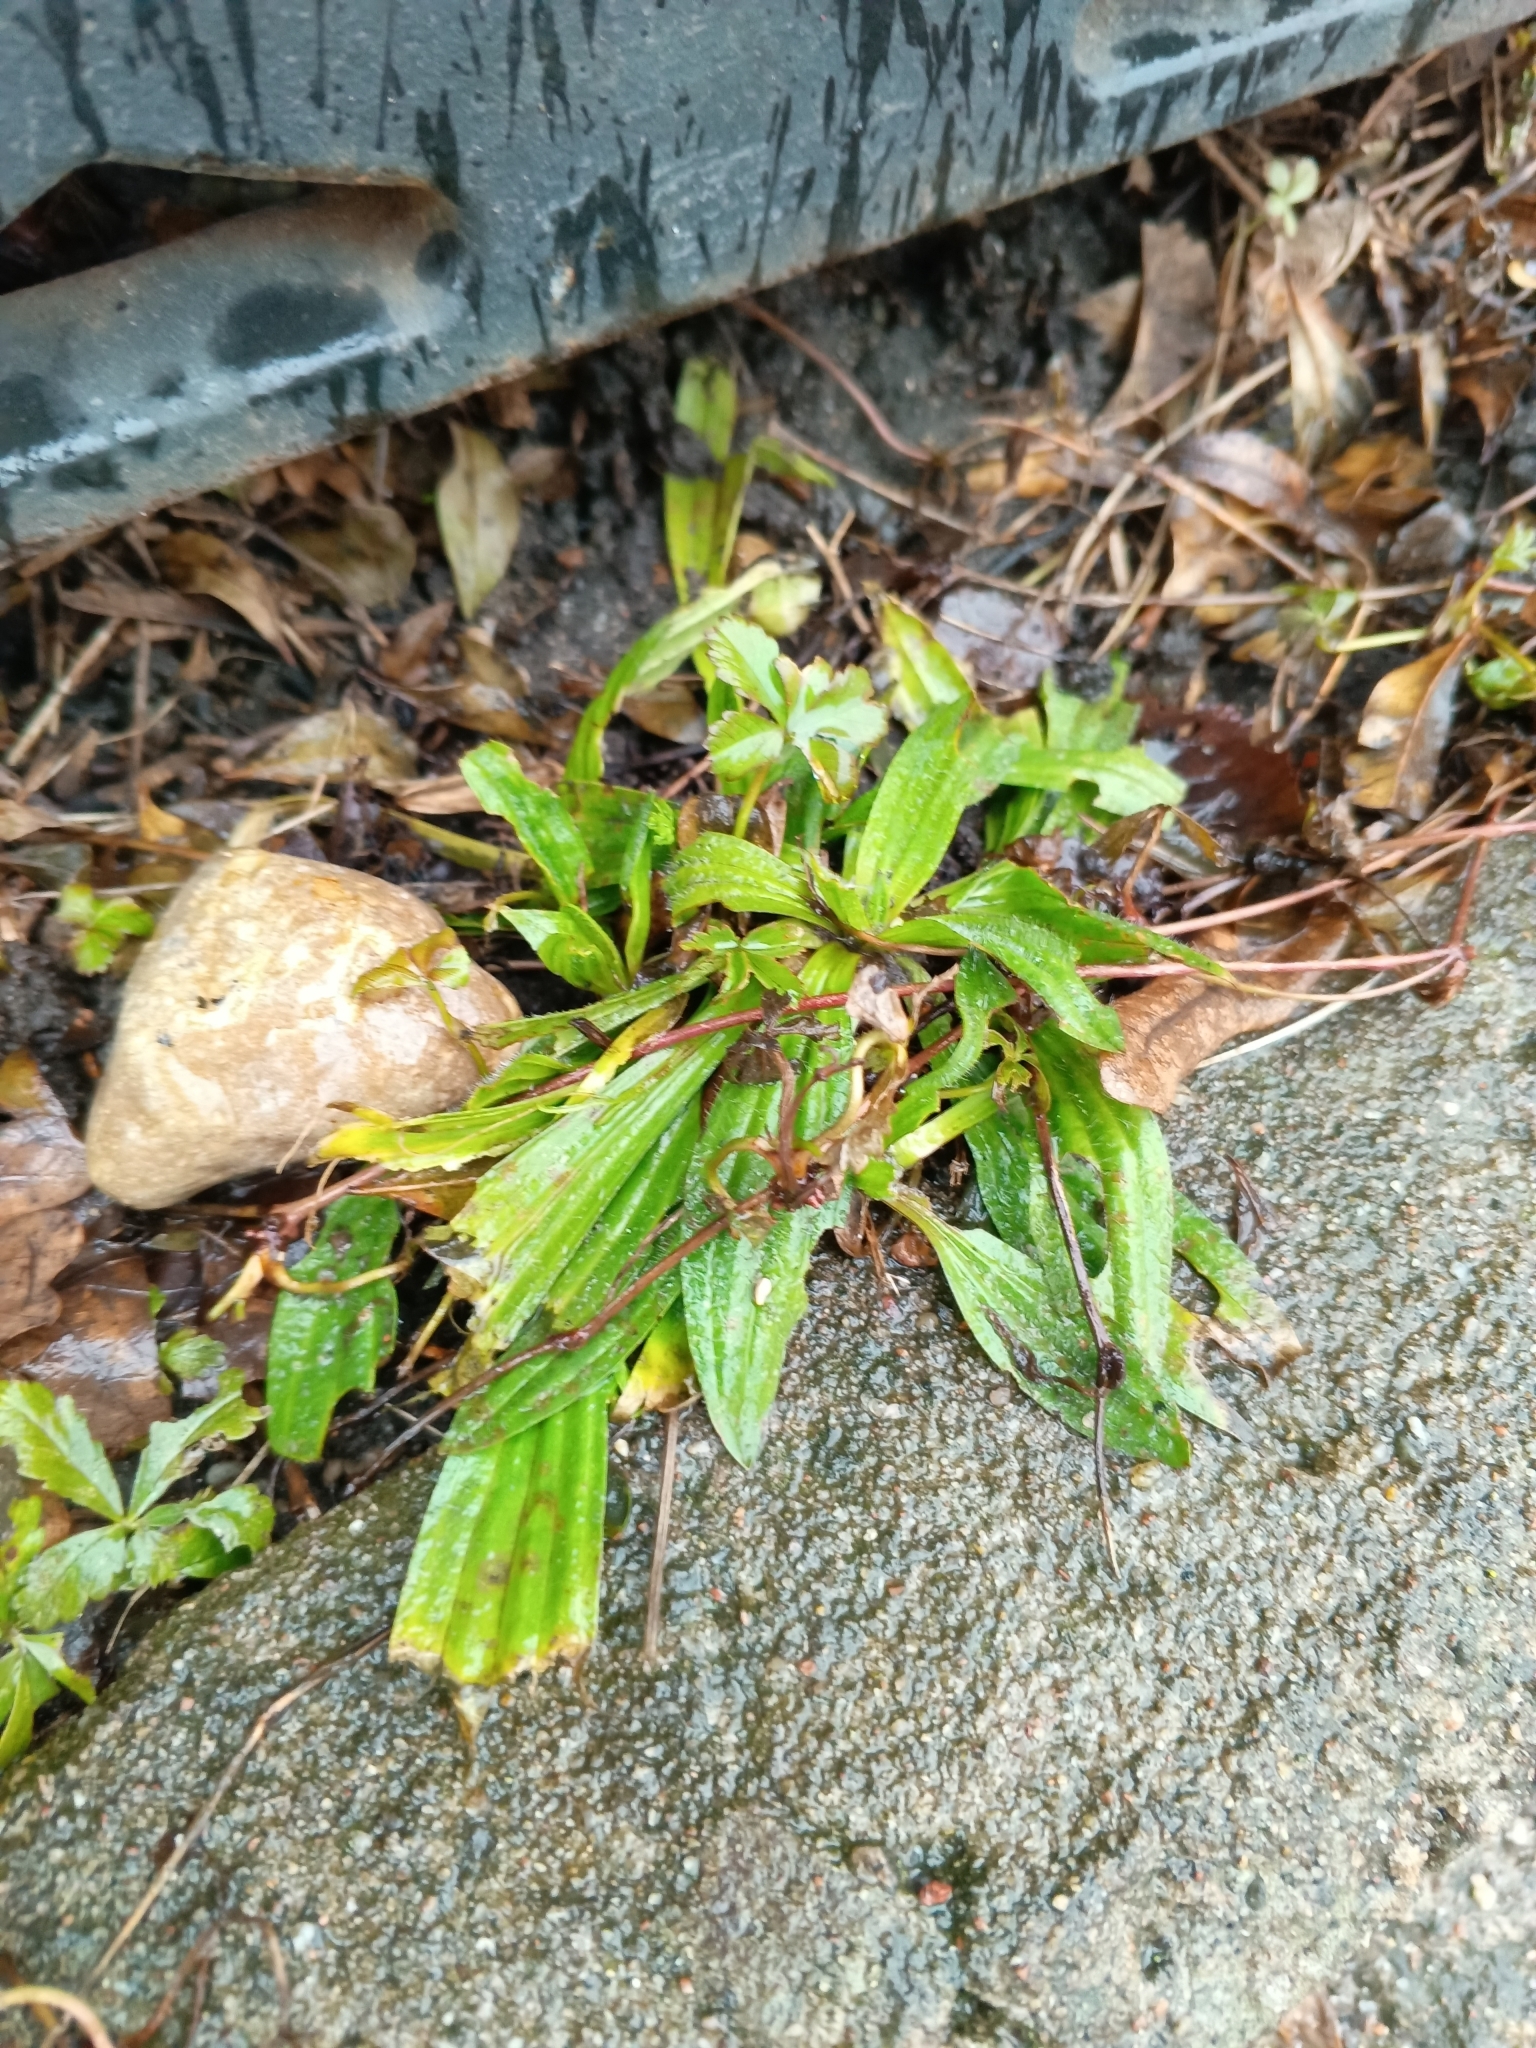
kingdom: Plantae
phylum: Tracheophyta
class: Magnoliopsida
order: Lamiales
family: Plantaginaceae
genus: Plantago
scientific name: Plantago lanceolata
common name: Ribwort plantain
